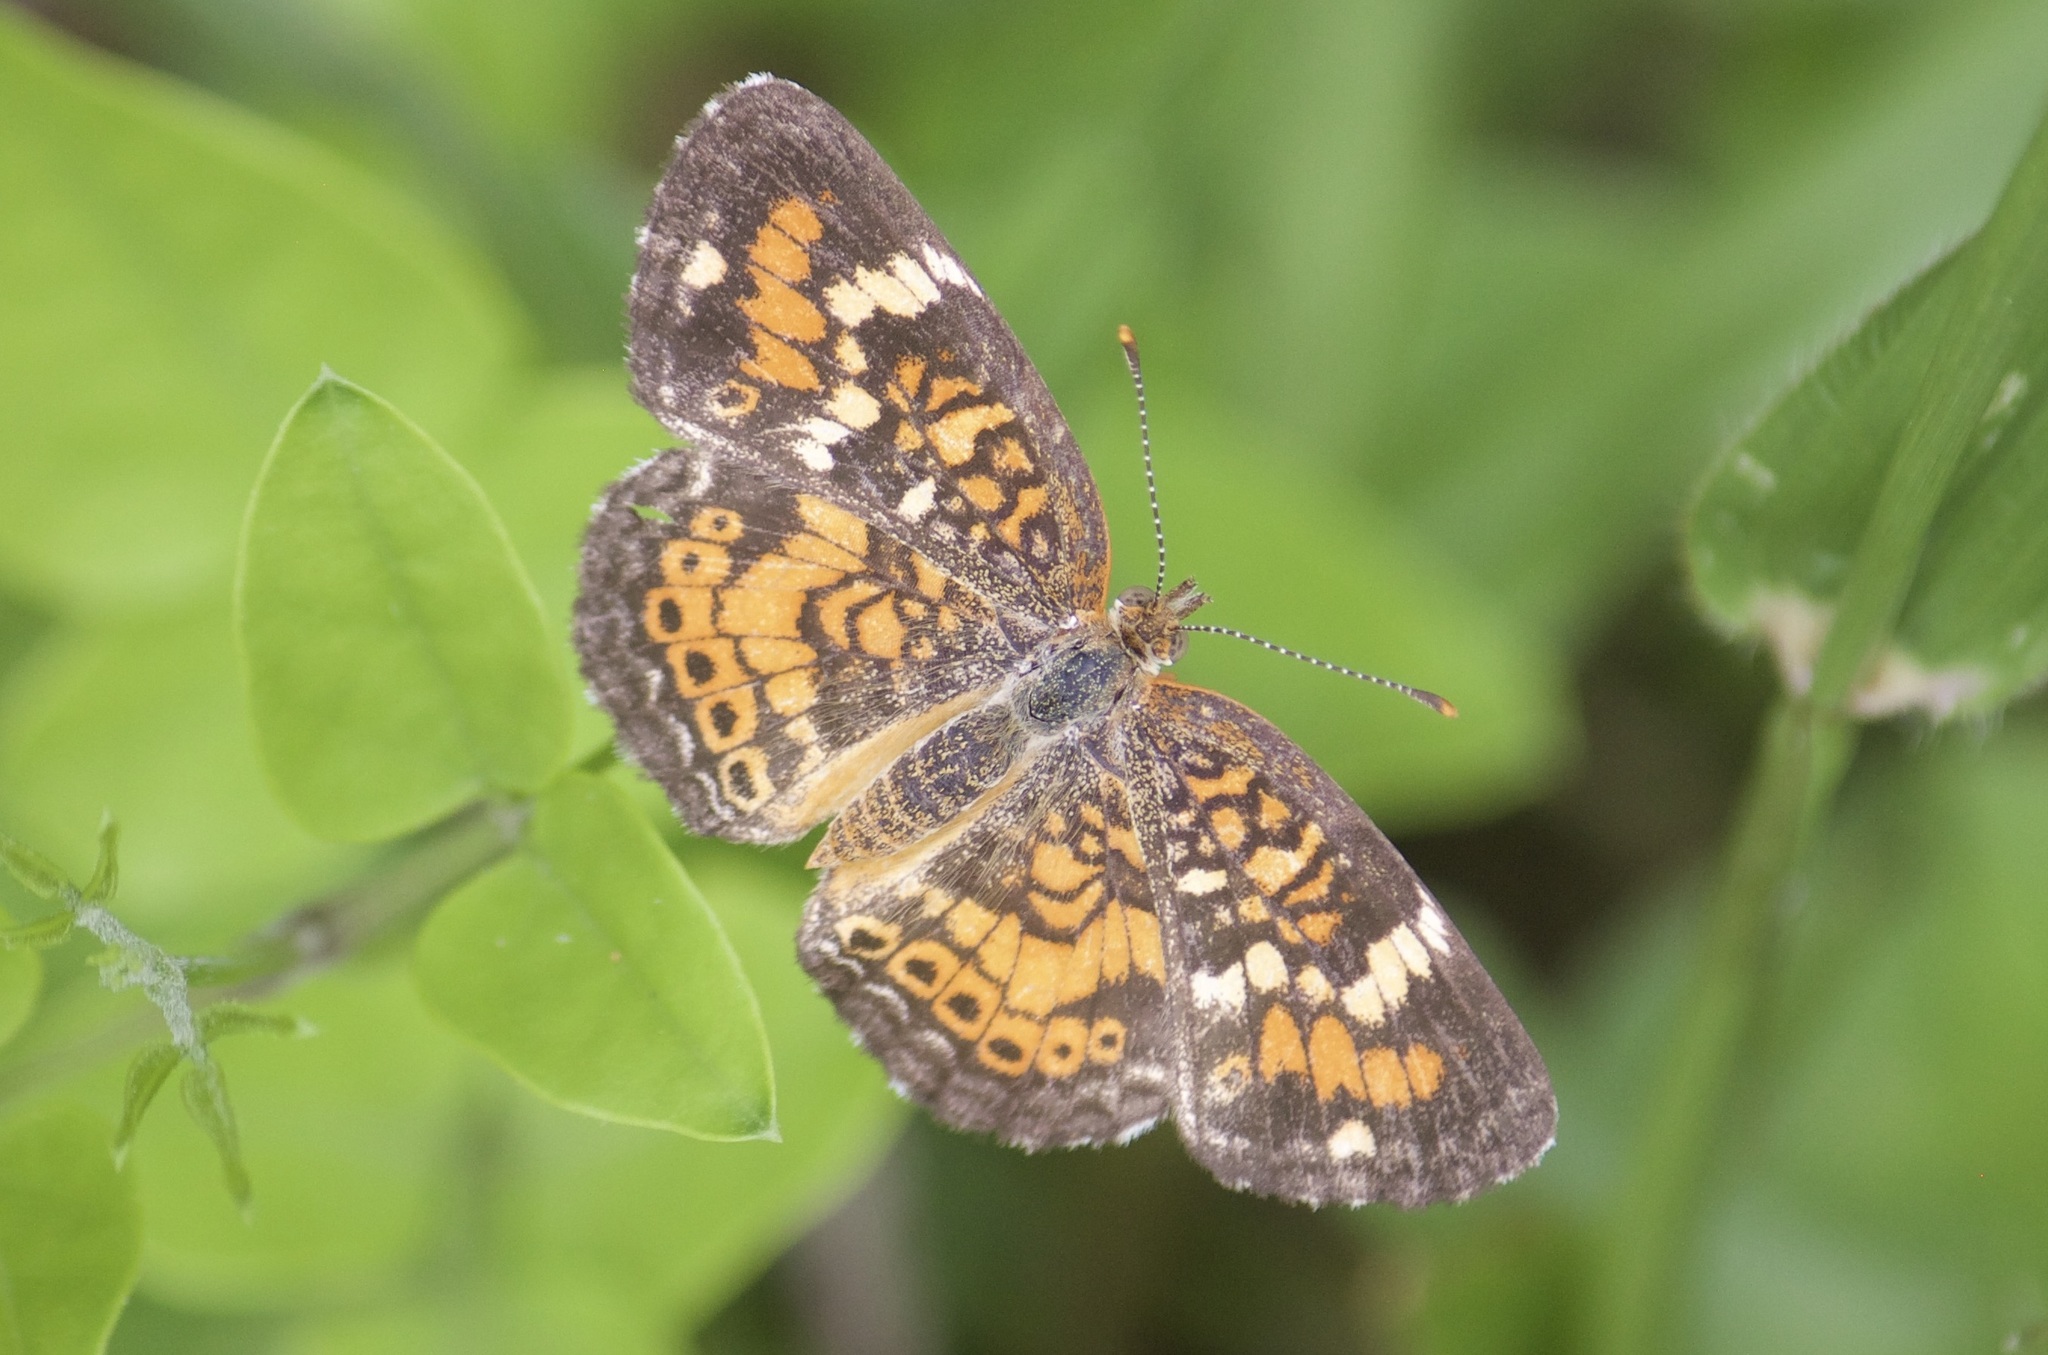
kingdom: Animalia
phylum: Arthropoda
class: Insecta
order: Lepidoptera
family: Nymphalidae
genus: Phyciodes
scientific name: Phyciodes phaon
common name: Phaon crescent
